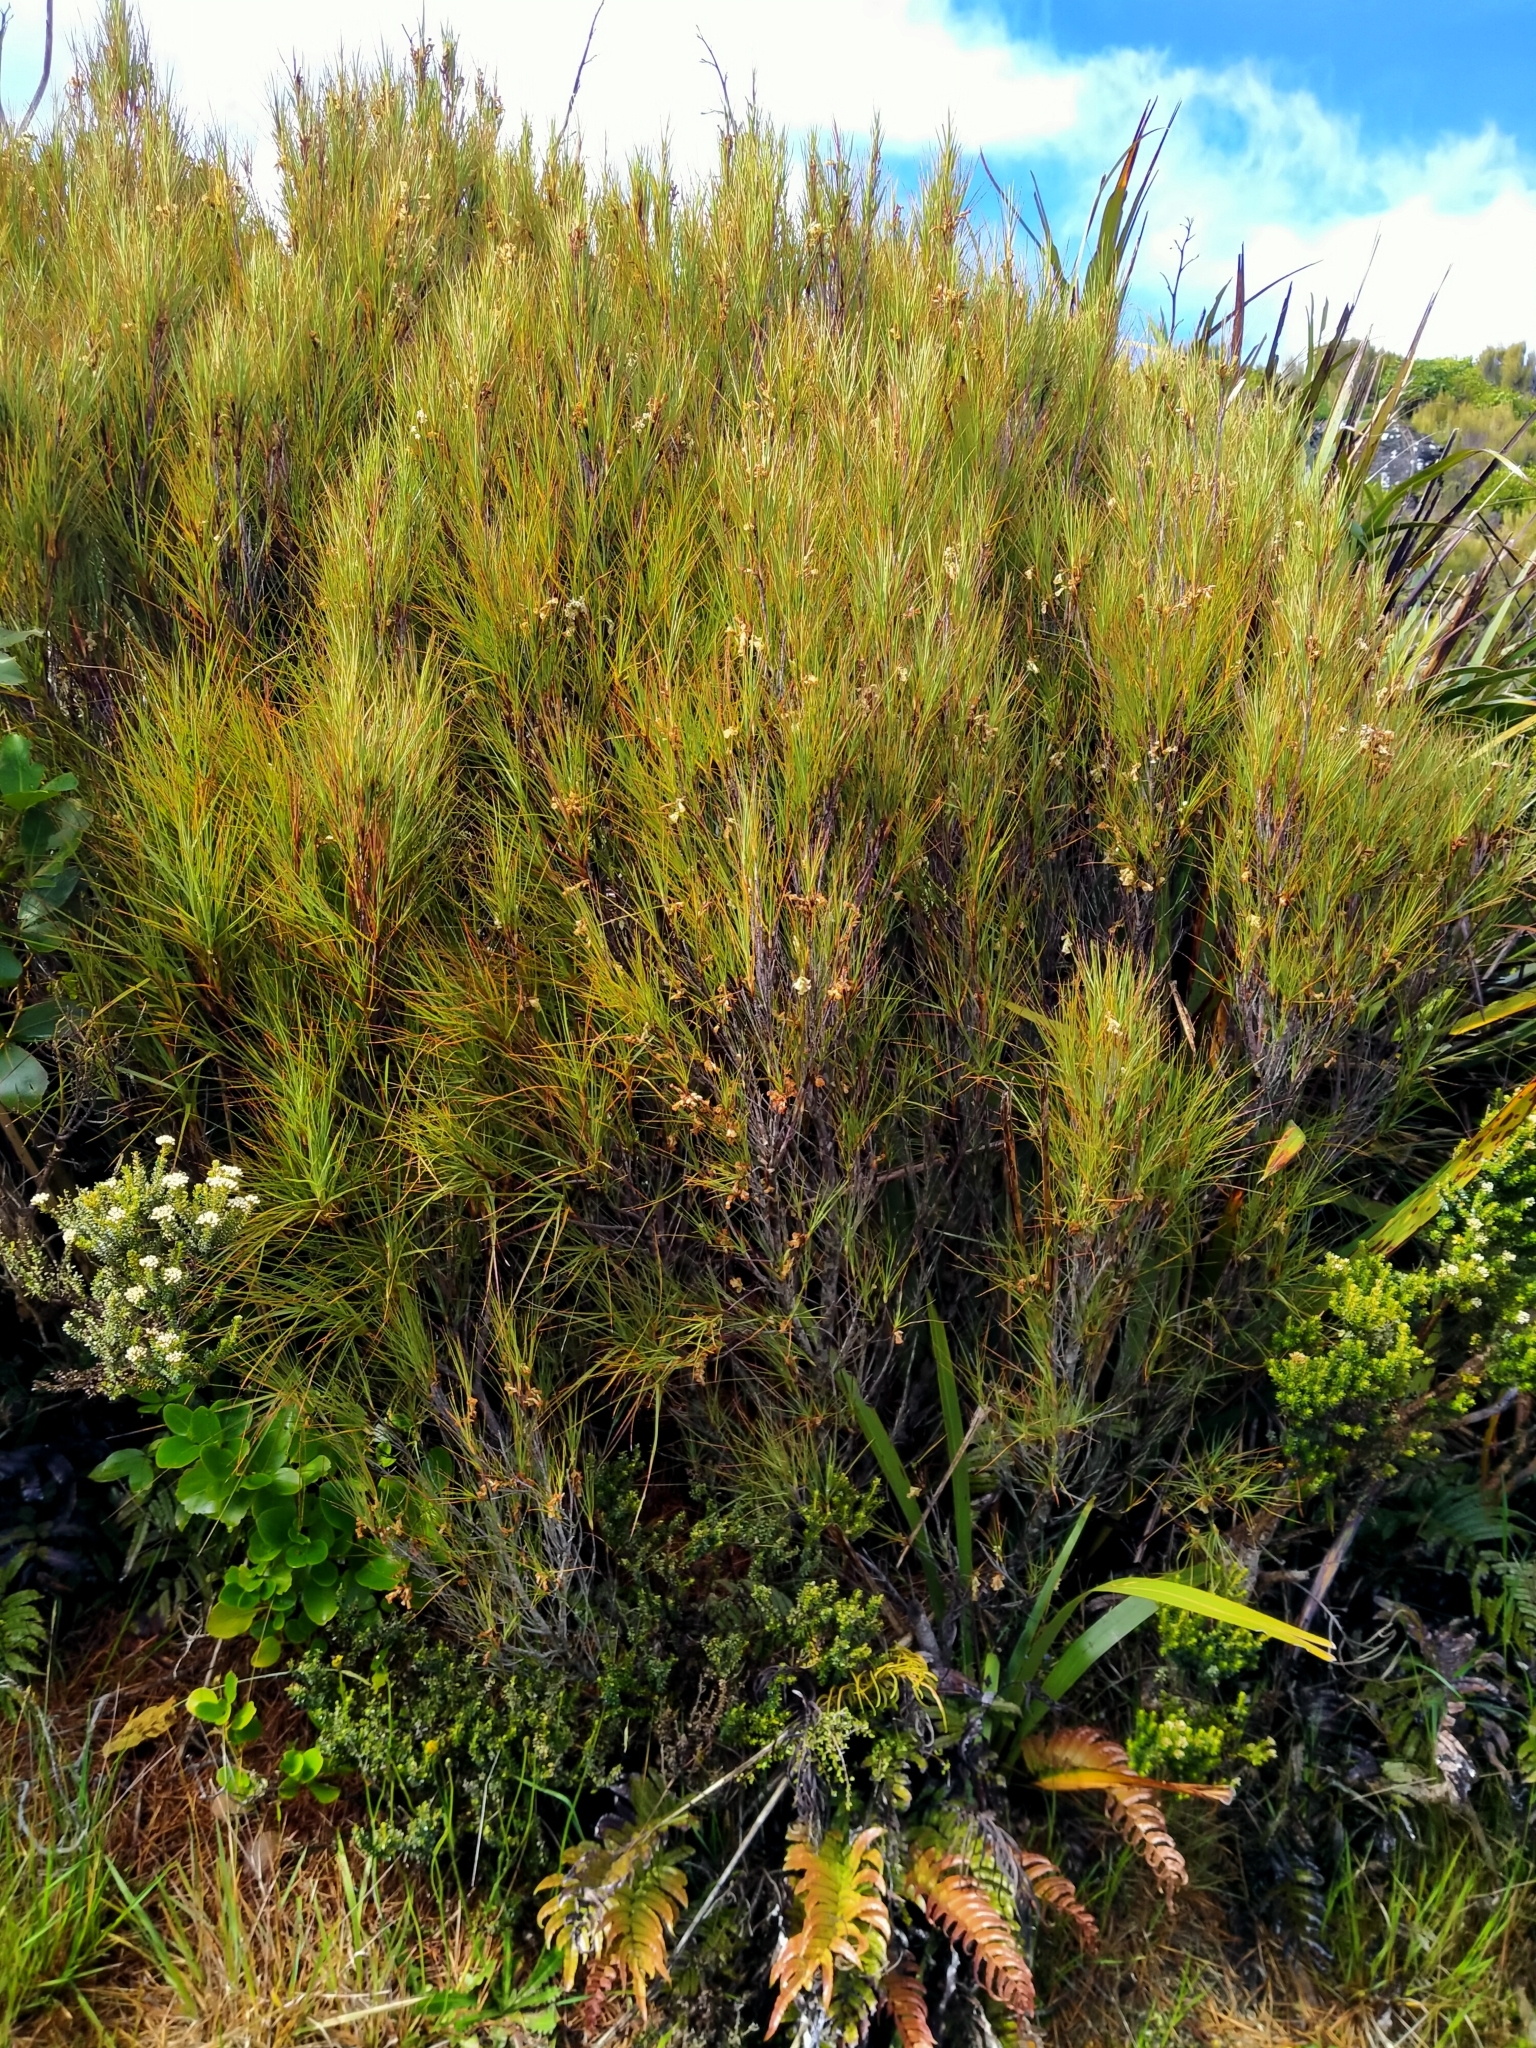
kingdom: Plantae
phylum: Tracheophyta
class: Magnoliopsida
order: Ericales
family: Ericaceae
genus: Dracophyllum
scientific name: Dracophyllum longifolium
